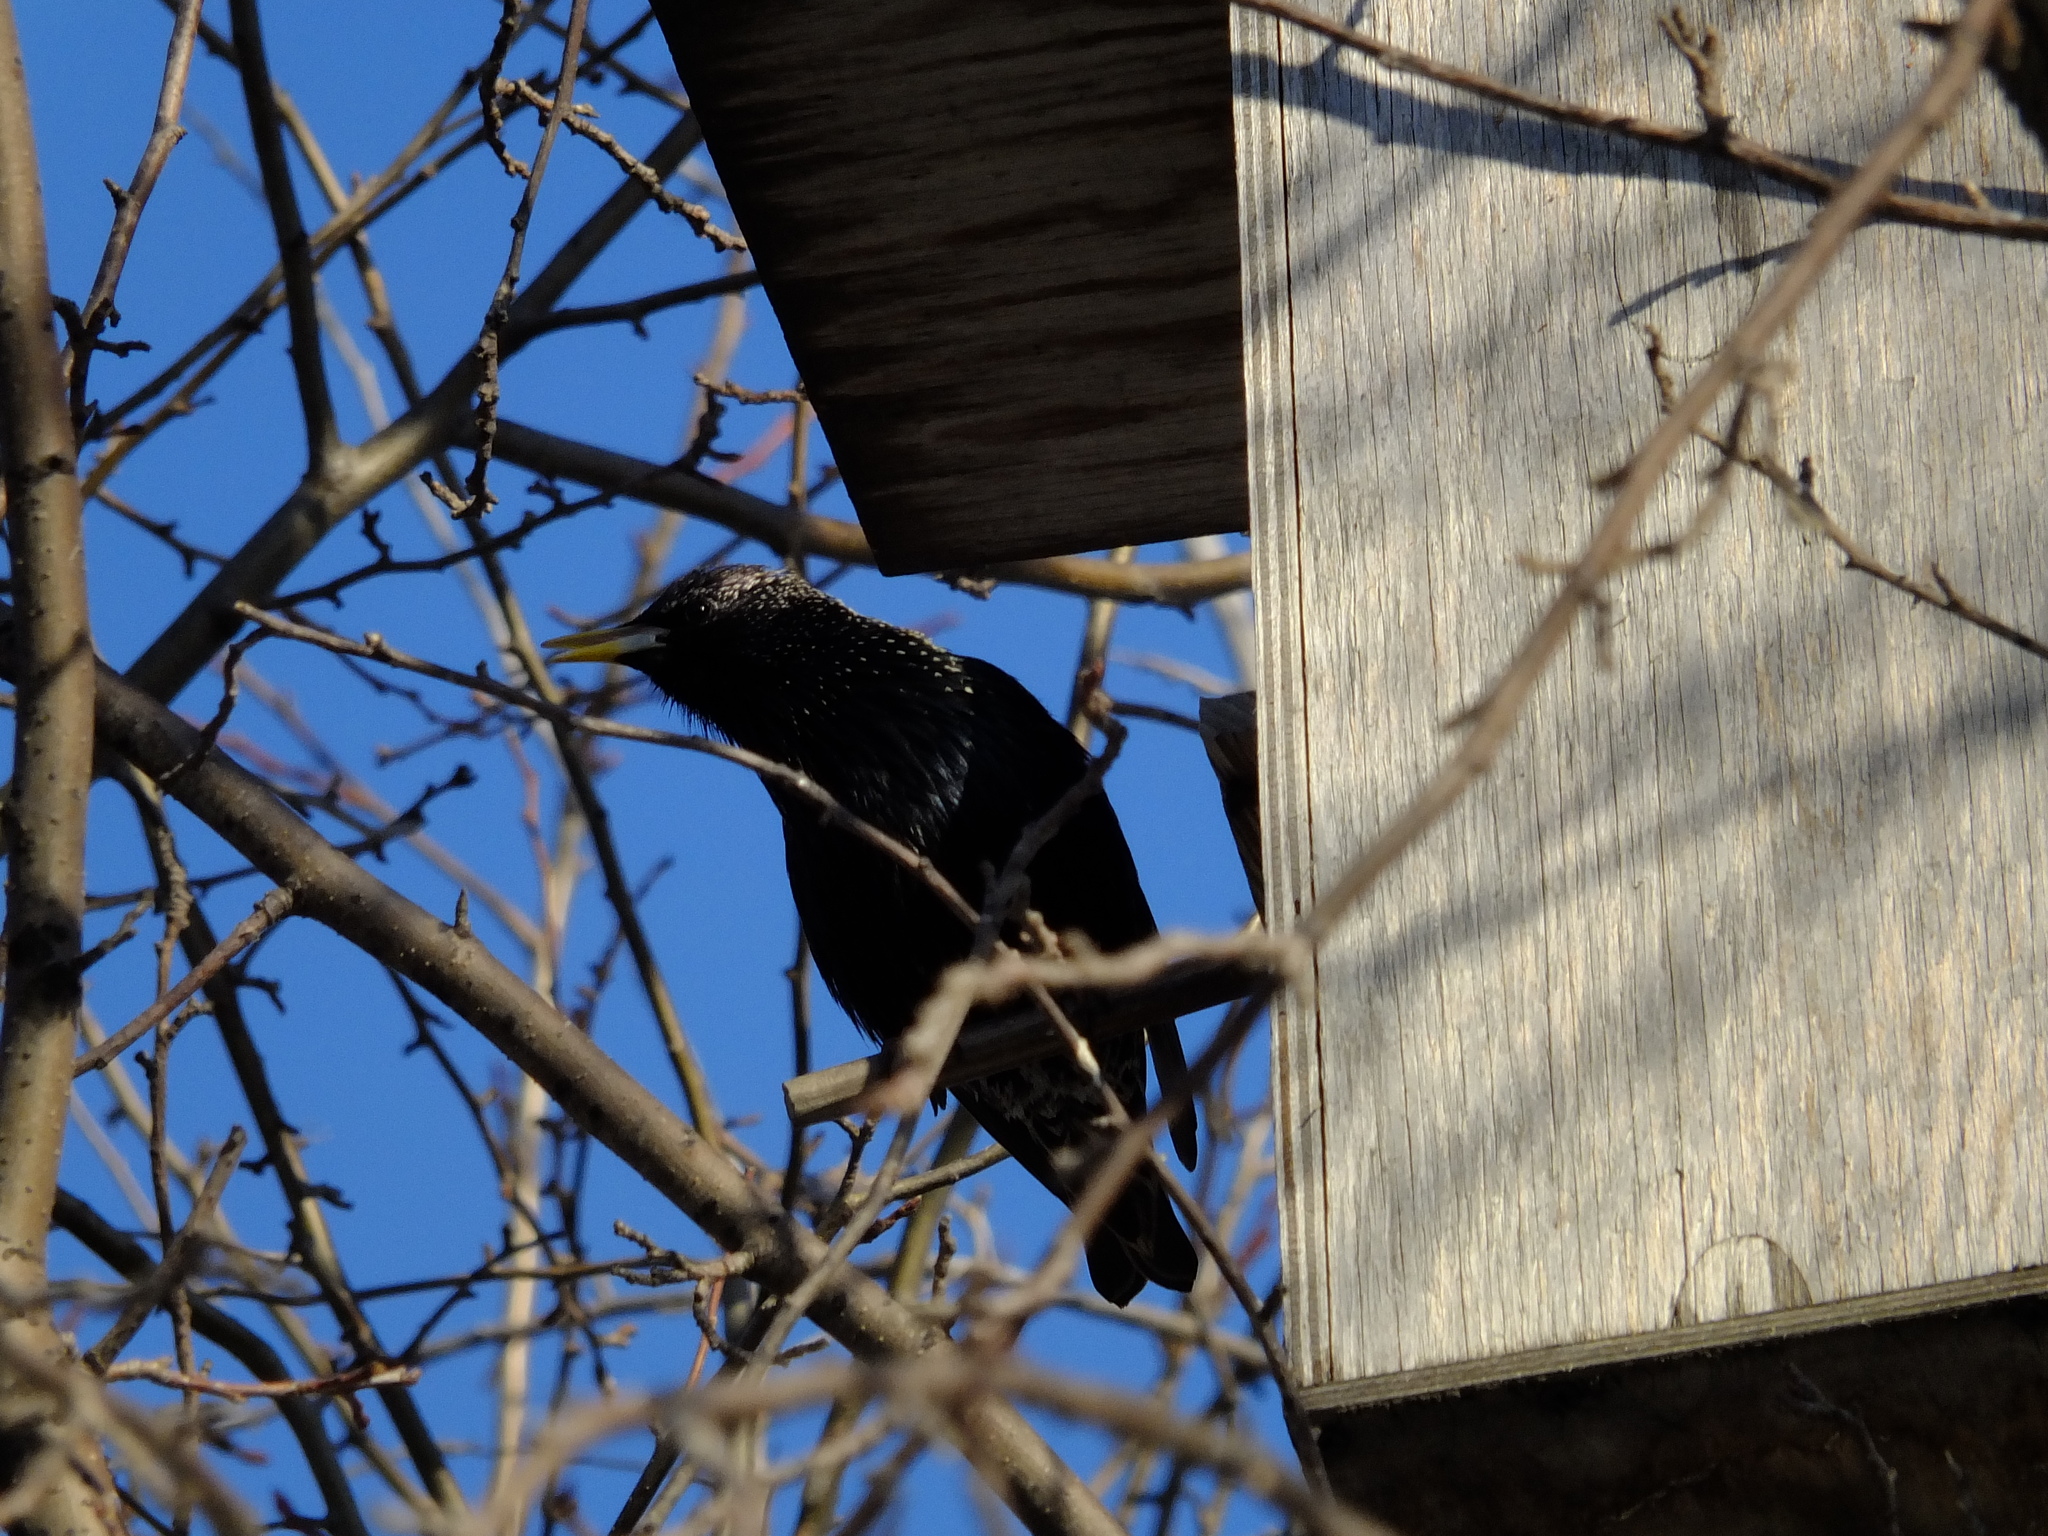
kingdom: Animalia
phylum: Chordata
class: Aves
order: Passeriformes
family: Sturnidae
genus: Sturnus
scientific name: Sturnus vulgaris
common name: Common starling
